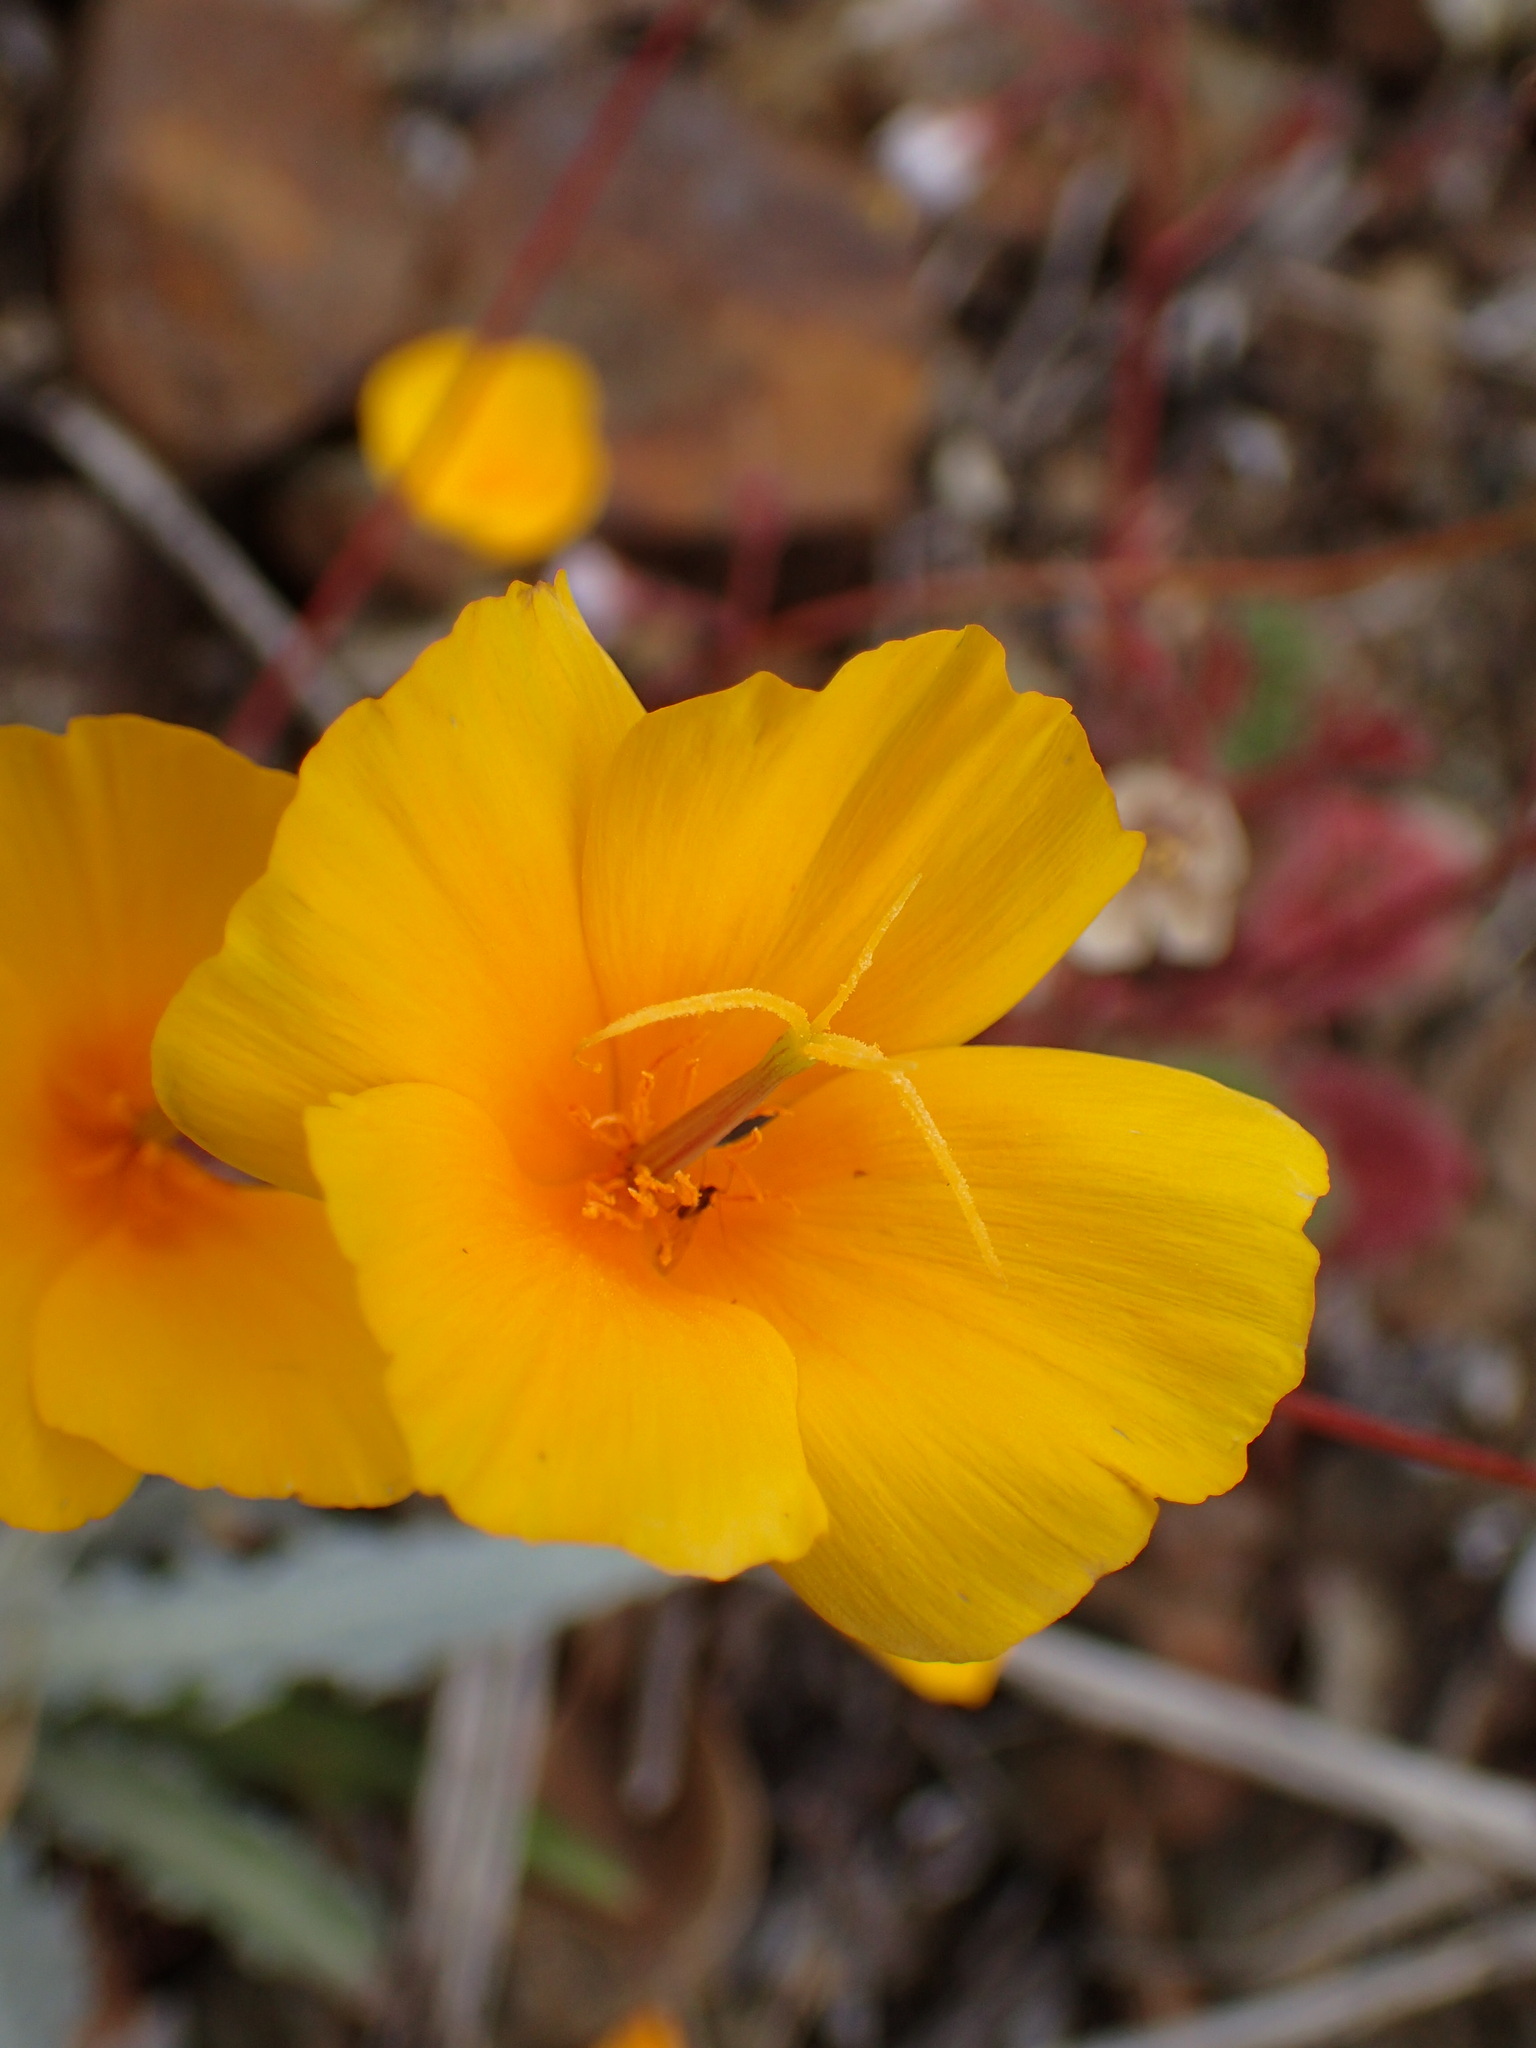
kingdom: Plantae
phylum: Tracheophyta
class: Magnoliopsida
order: Ranunculales
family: Papaveraceae
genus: Eschscholzia
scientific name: Eschscholzia caespitosa
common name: Tufted california-poppy
